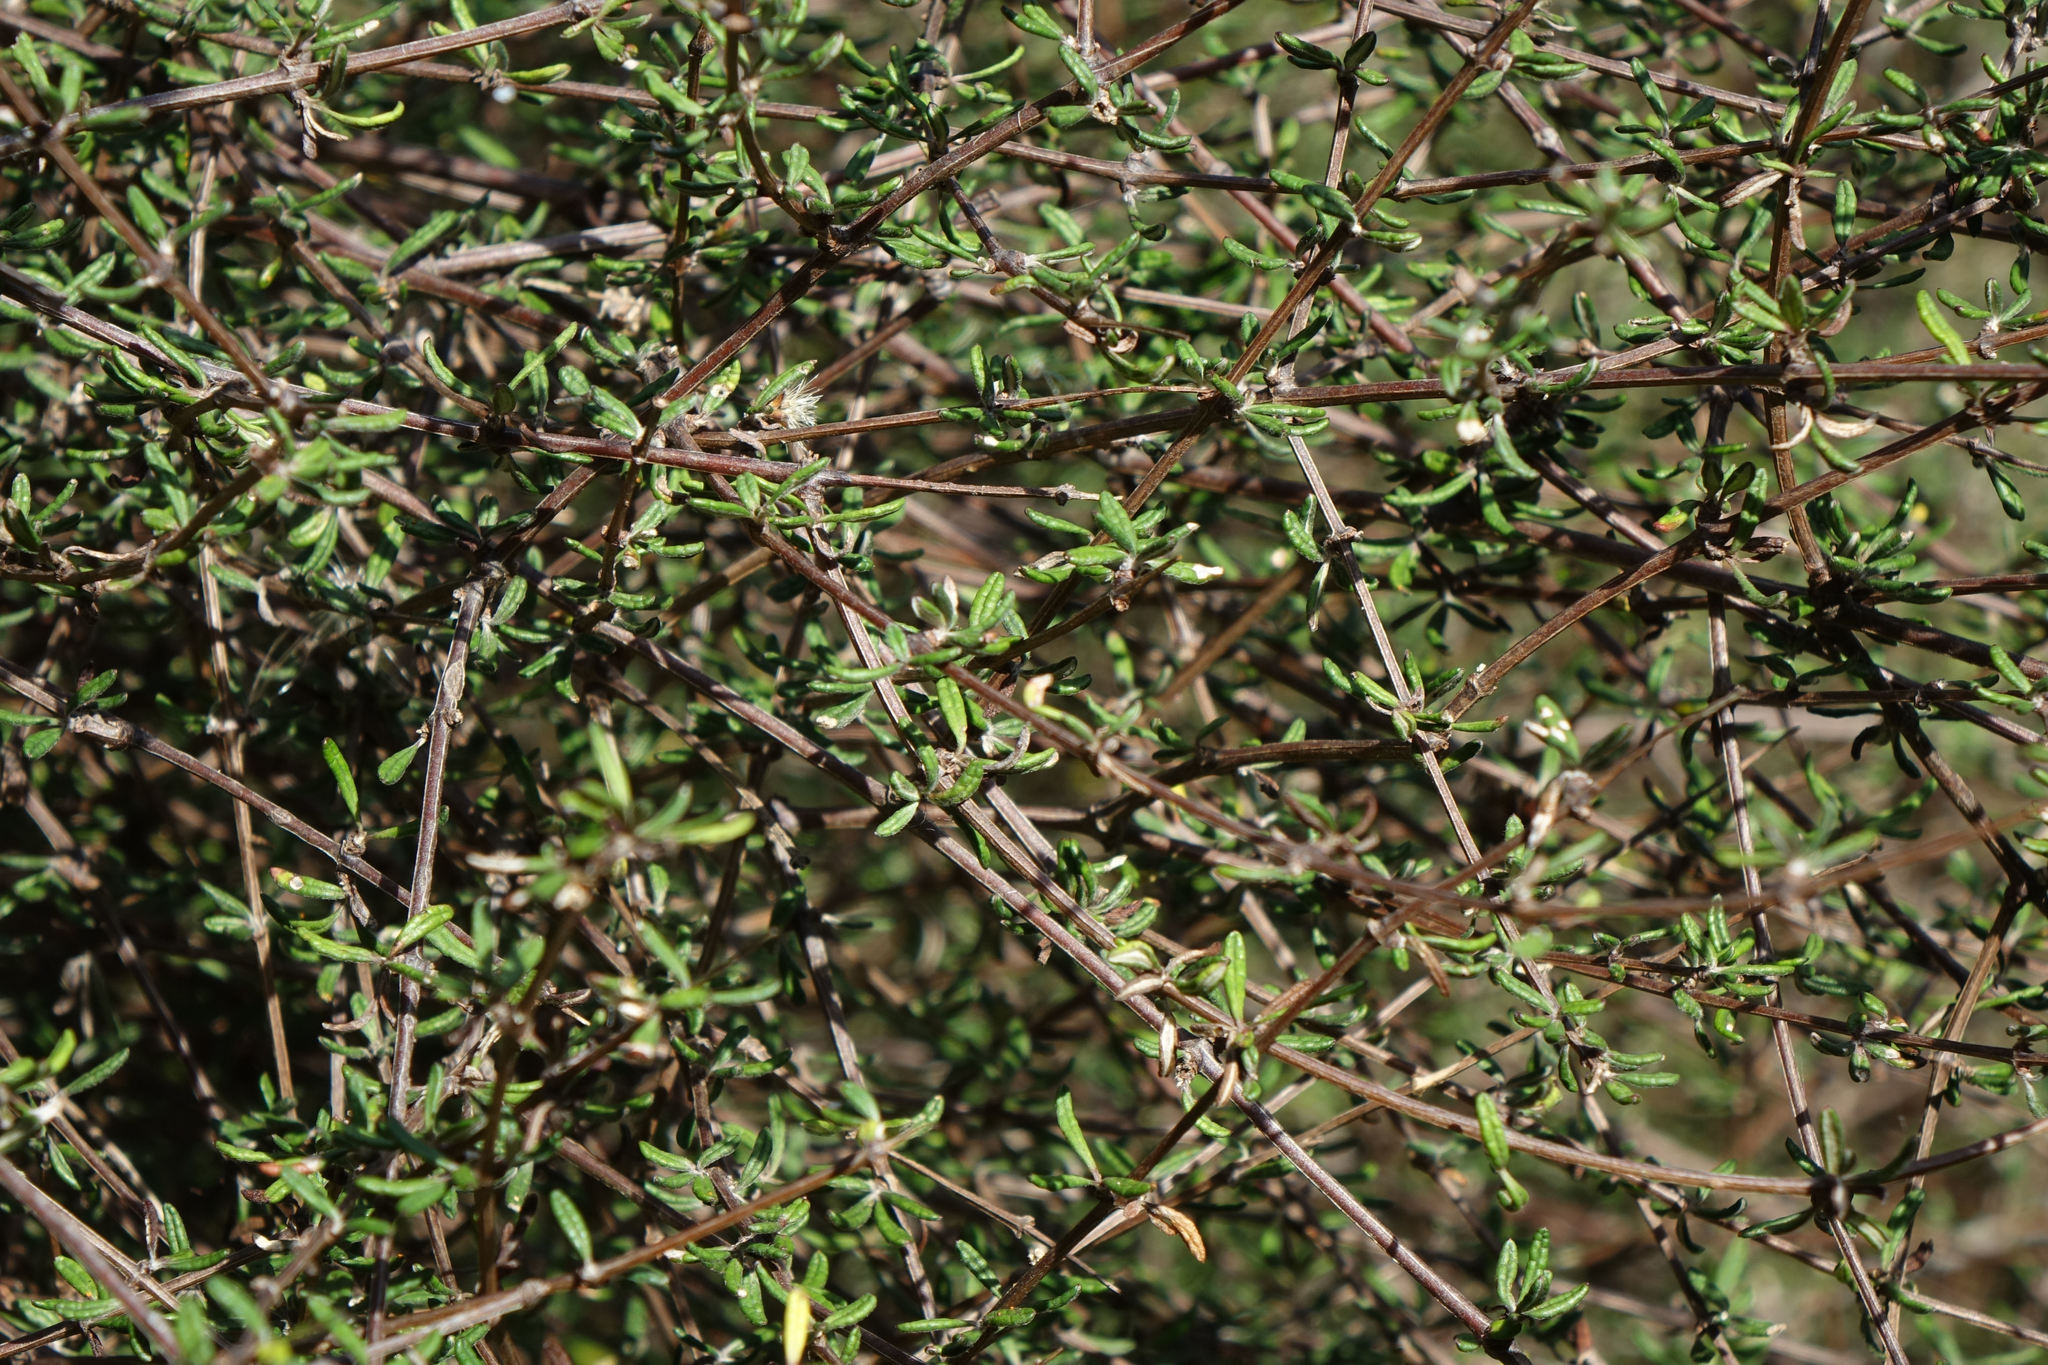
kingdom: Plantae
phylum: Tracheophyta
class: Magnoliopsida
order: Asterales
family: Asteraceae
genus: Olearia
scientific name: Olearia bullata
